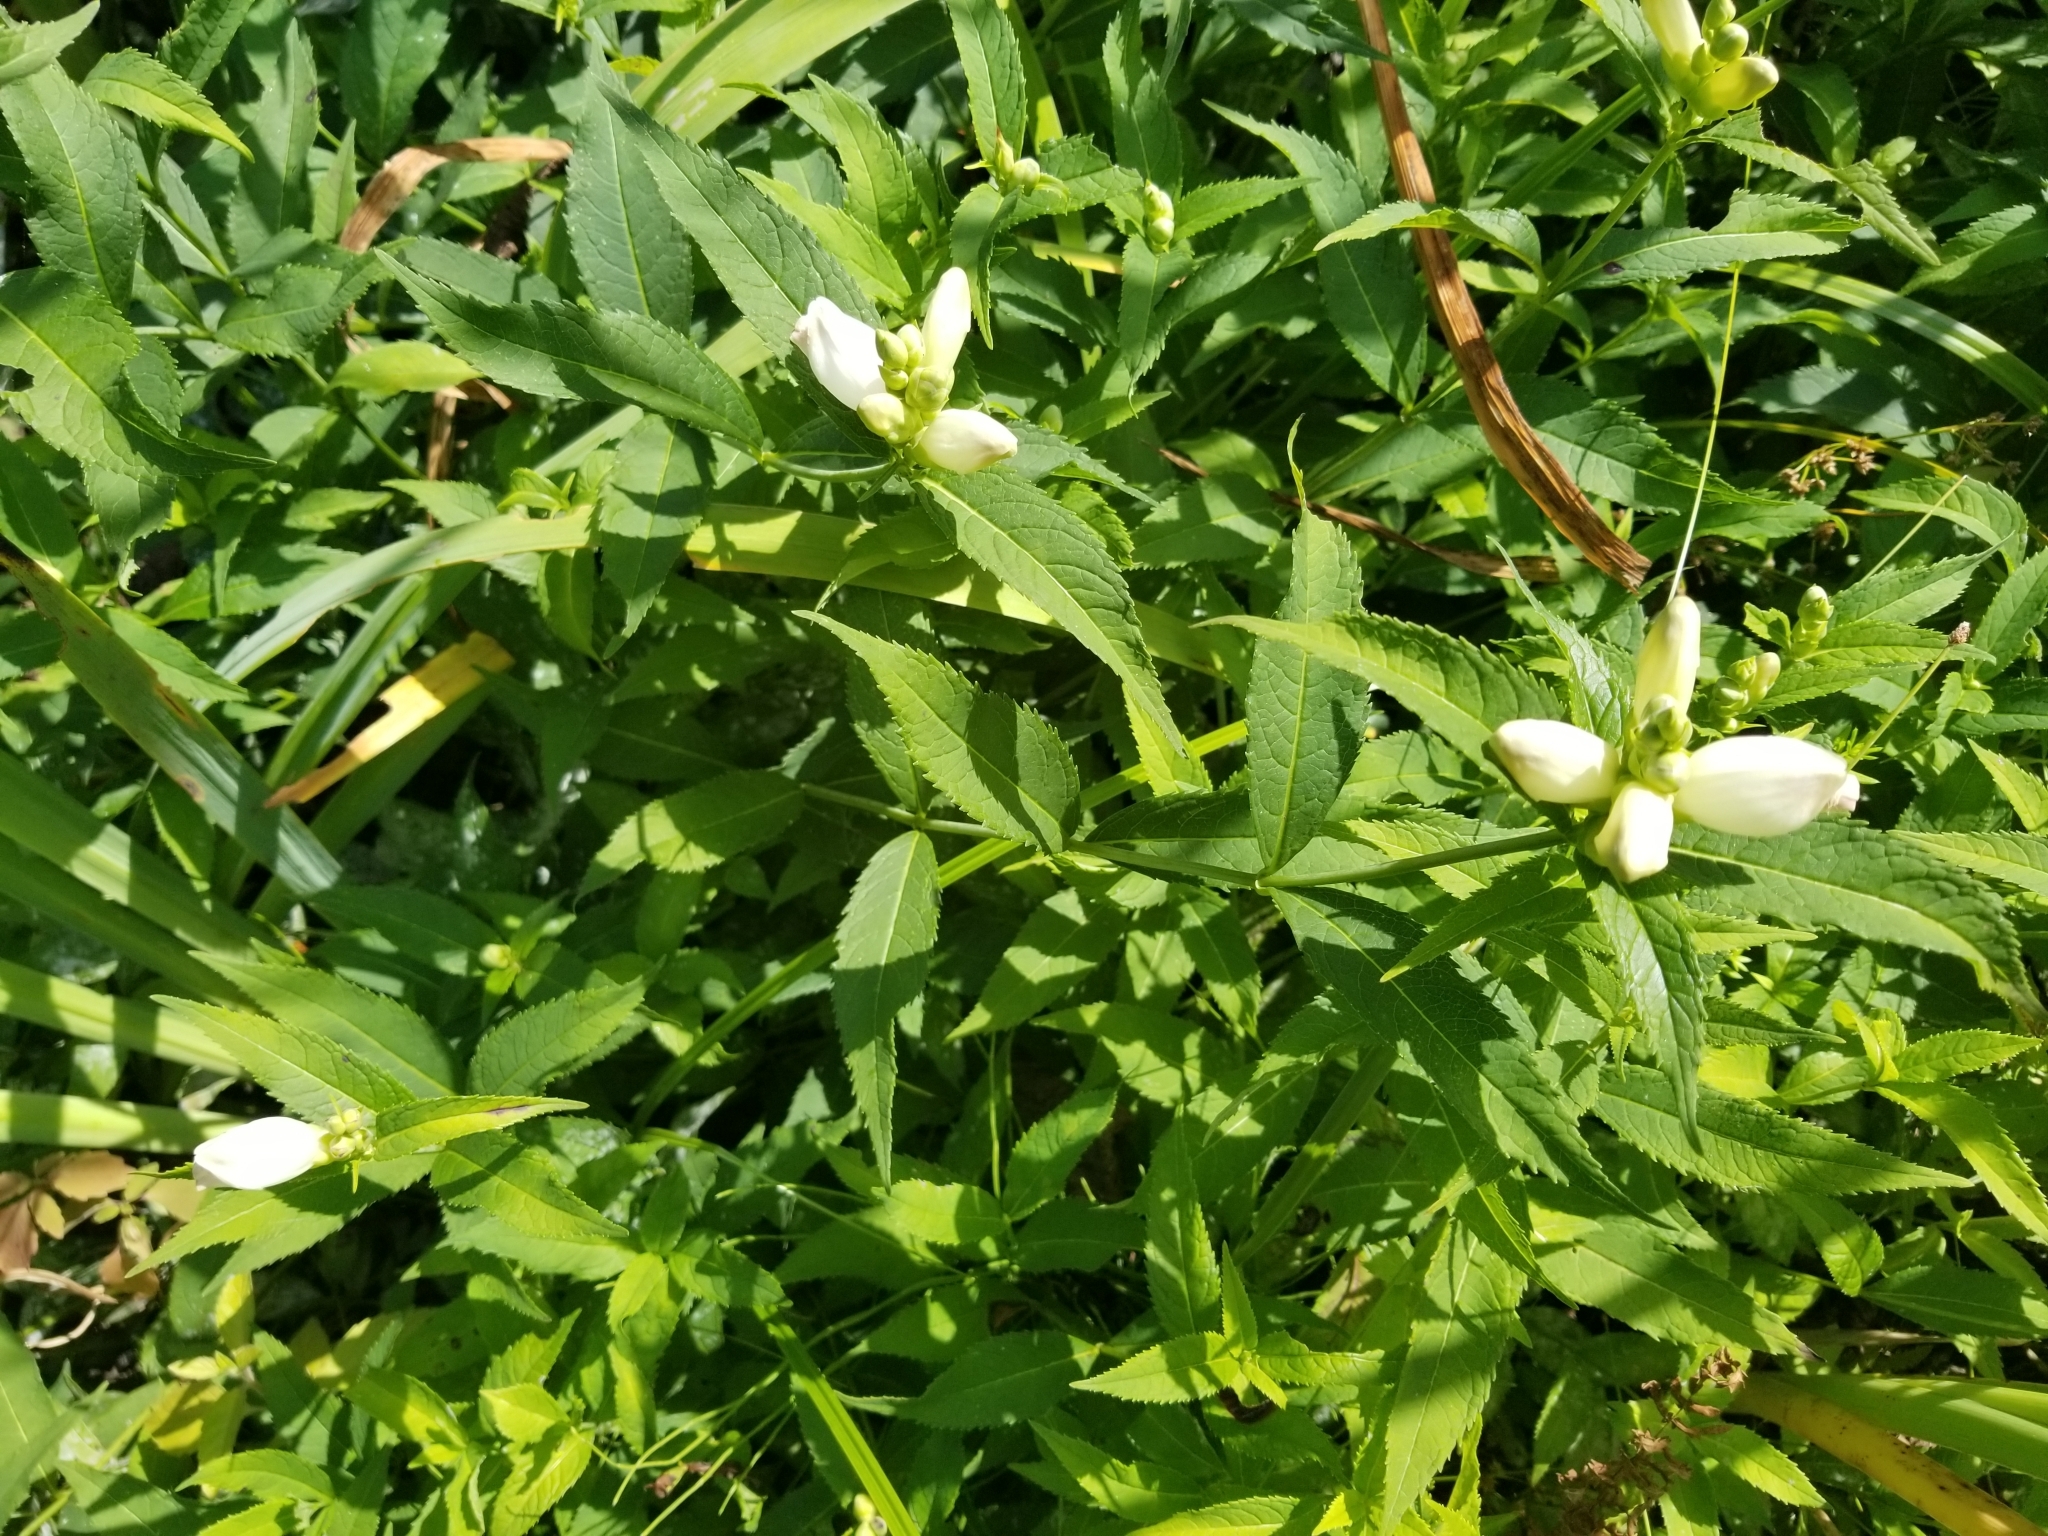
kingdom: Plantae
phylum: Tracheophyta
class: Magnoliopsida
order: Lamiales
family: Plantaginaceae
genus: Chelone
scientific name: Chelone glabra
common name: Snakehead
